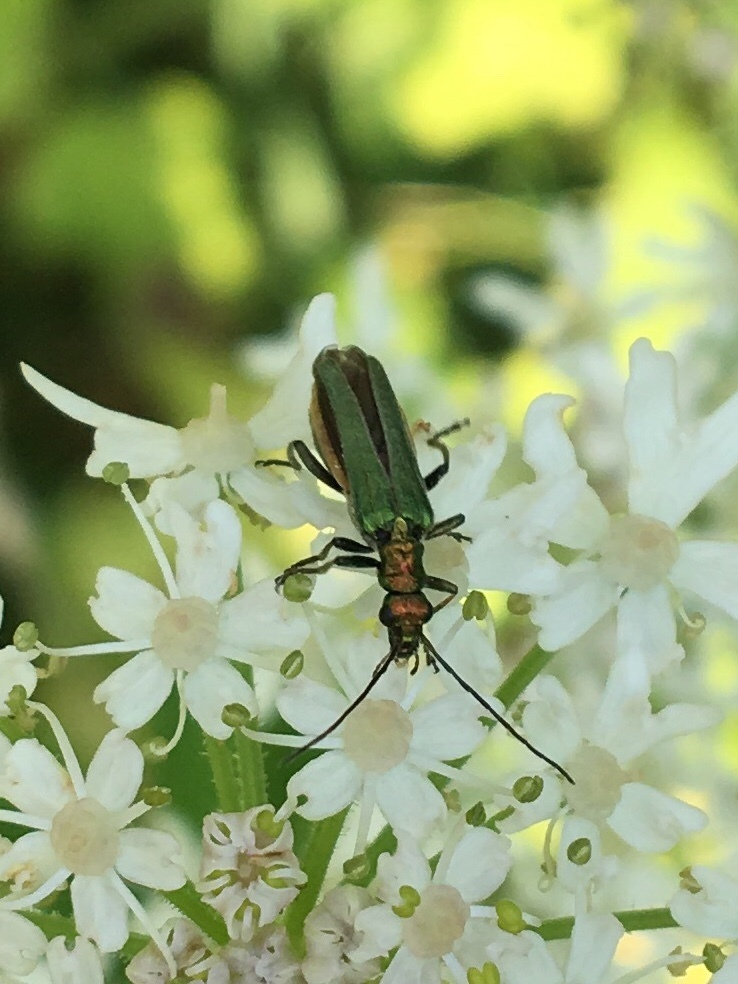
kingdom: Animalia
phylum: Arthropoda
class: Insecta
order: Coleoptera
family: Oedemeridae
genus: Oedemera
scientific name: Oedemera nobilis
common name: Swollen-thighed beetle
